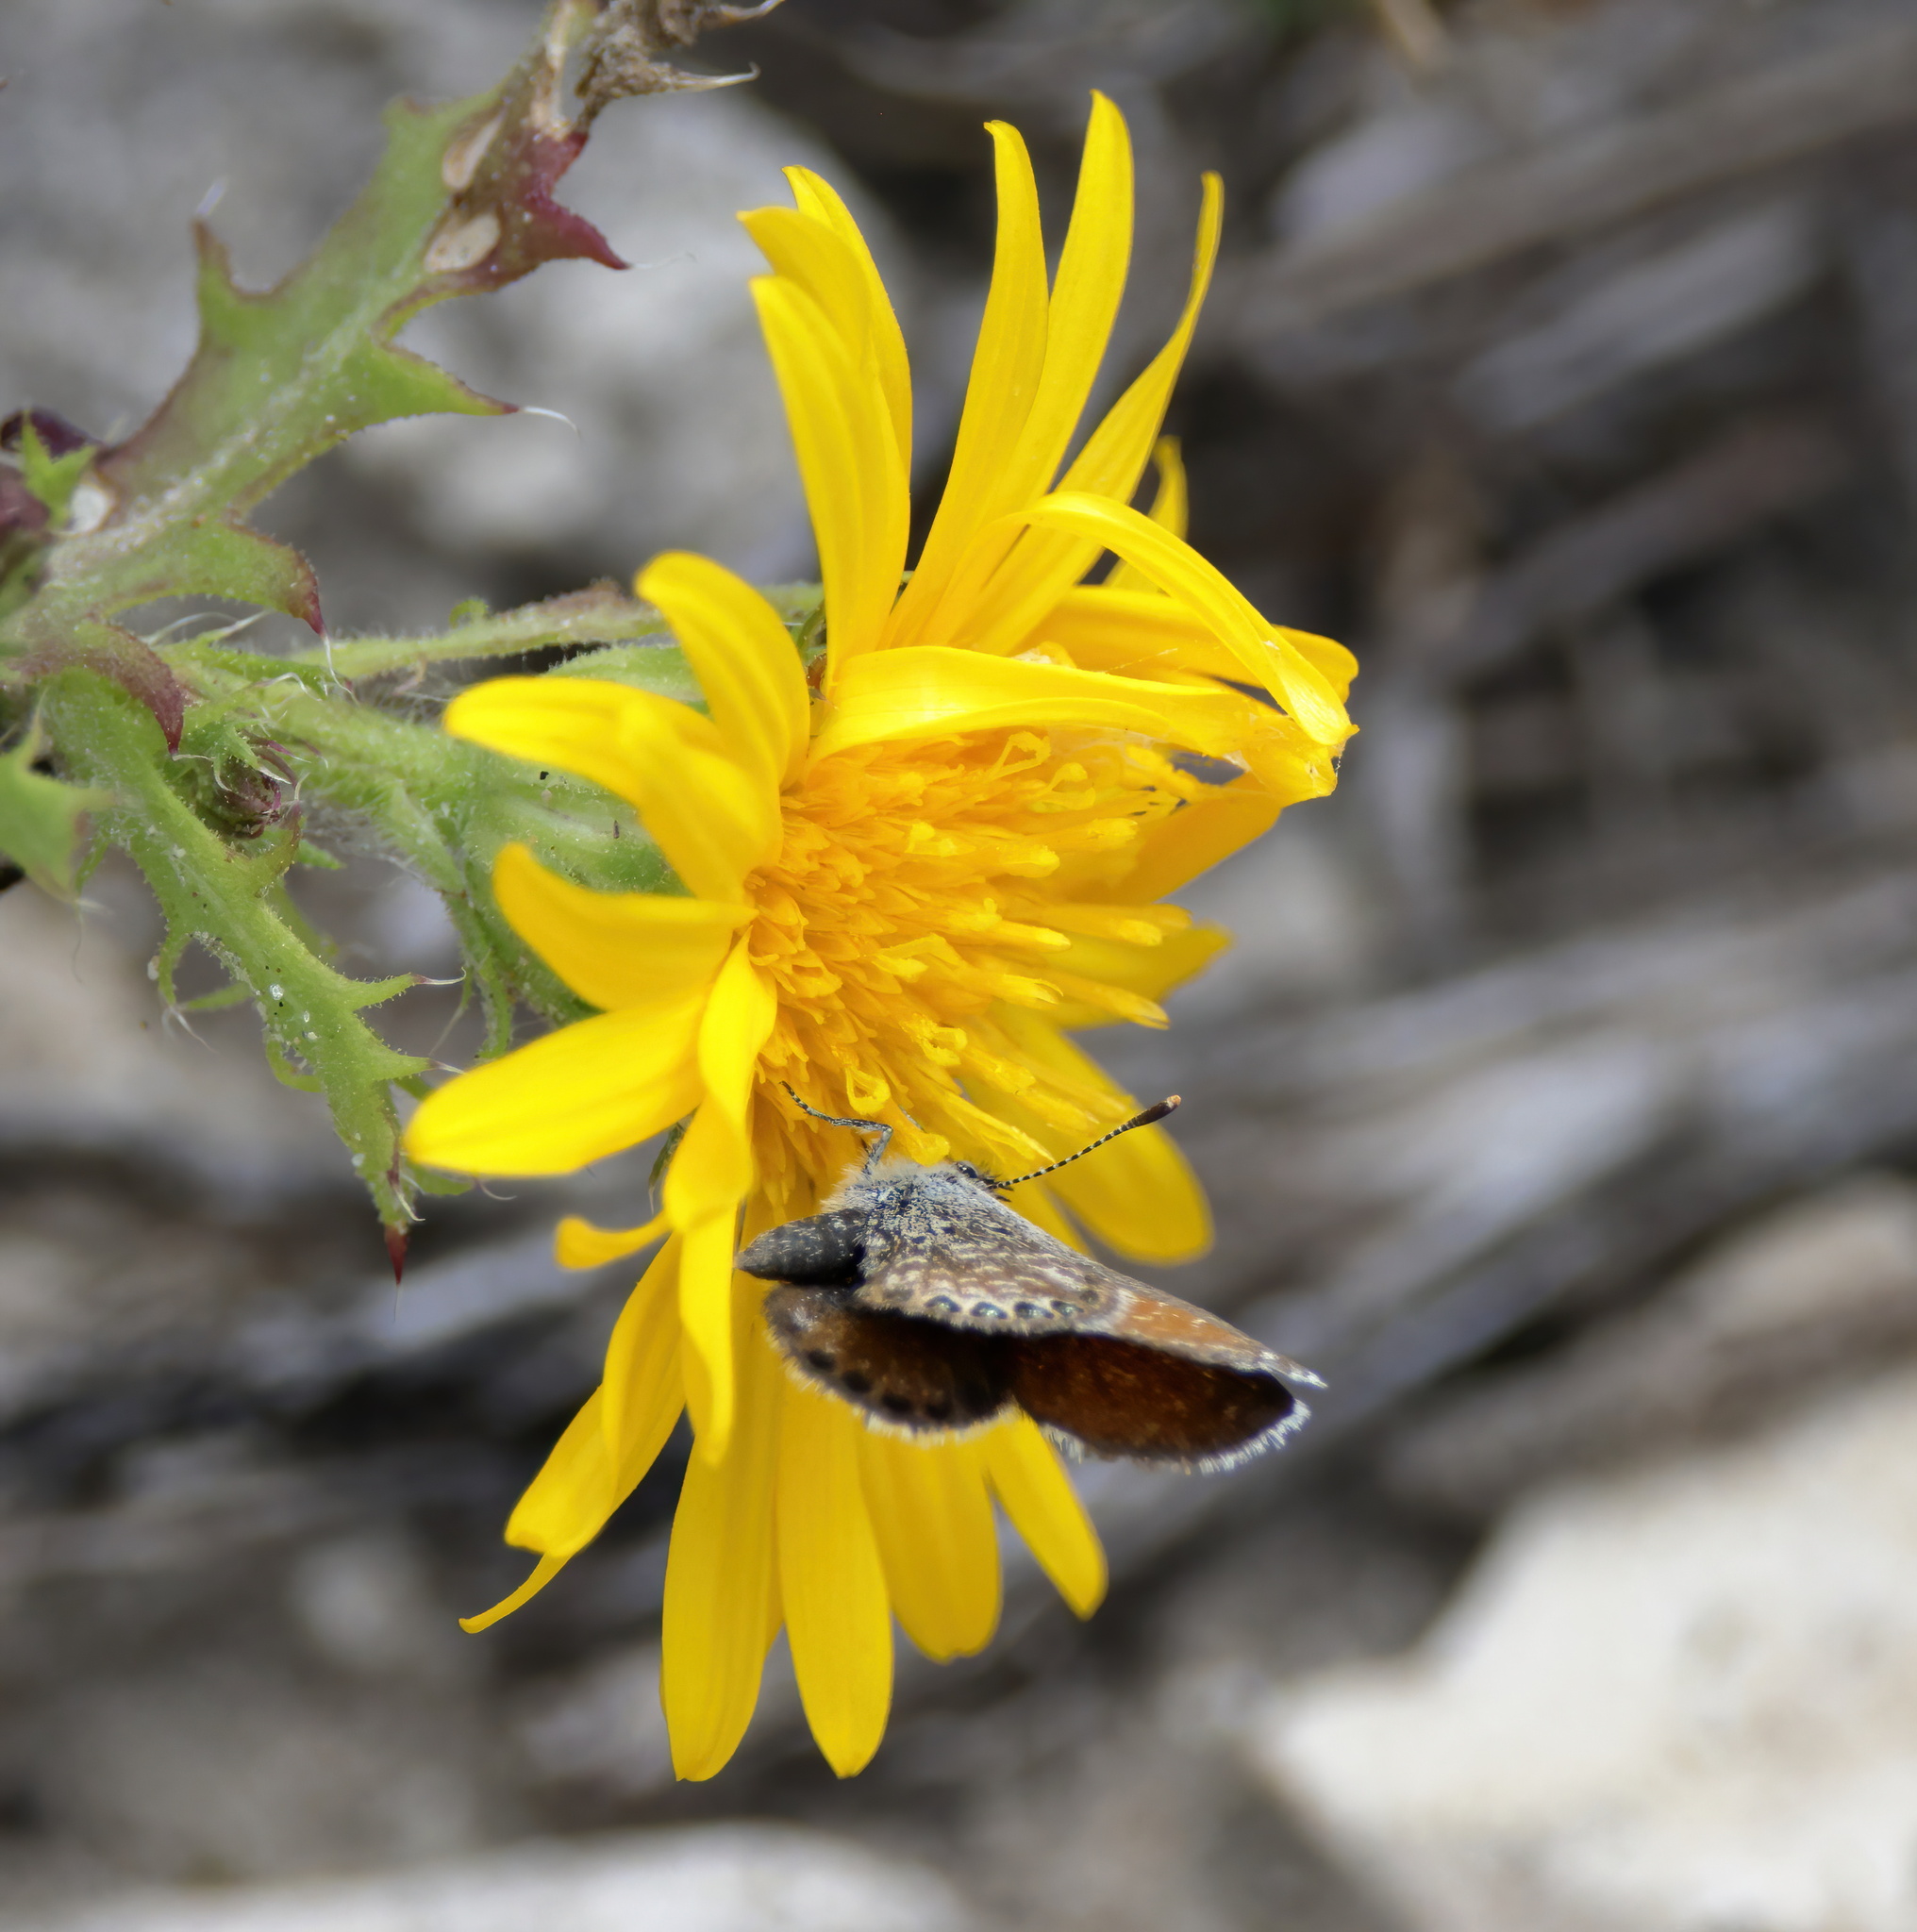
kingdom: Animalia
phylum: Arthropoda
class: Insecta
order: Lepidoptera
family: Lycaenidae
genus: Brephidium
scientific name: Brephidium exilis
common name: Pygmy blue
